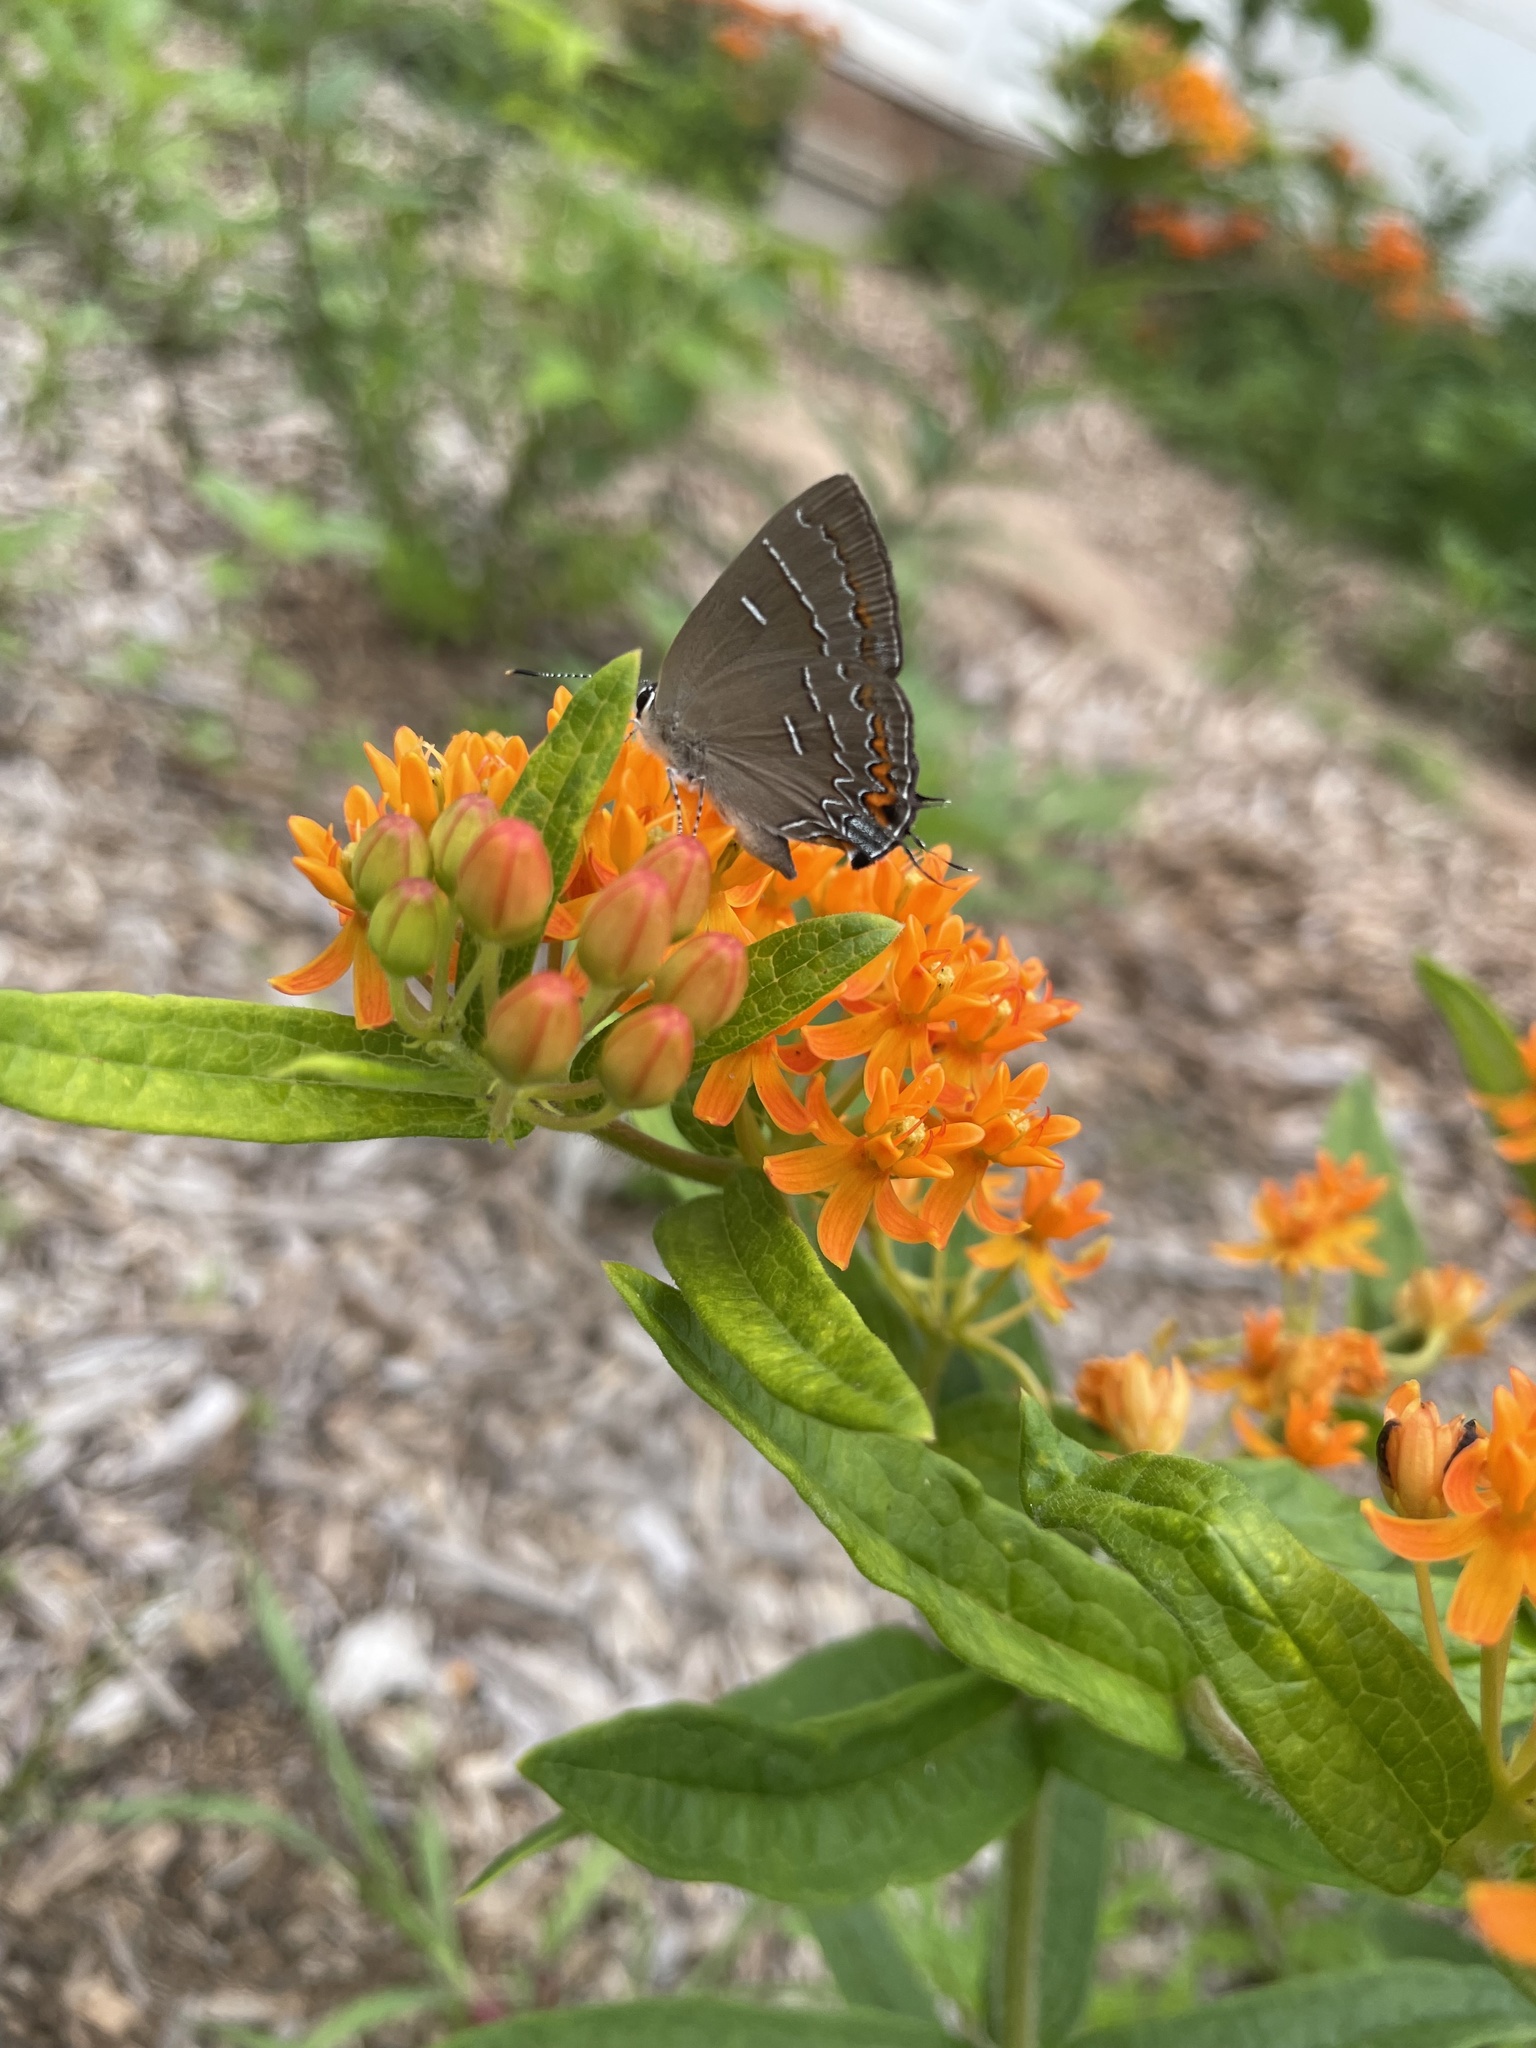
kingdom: Animalia
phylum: Arthropoda
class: Insecta
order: Lepidoptera
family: Lycaenidae
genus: Phaeostrymon
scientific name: Phaeostrymon alcestis
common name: Soapberry hairstreak
